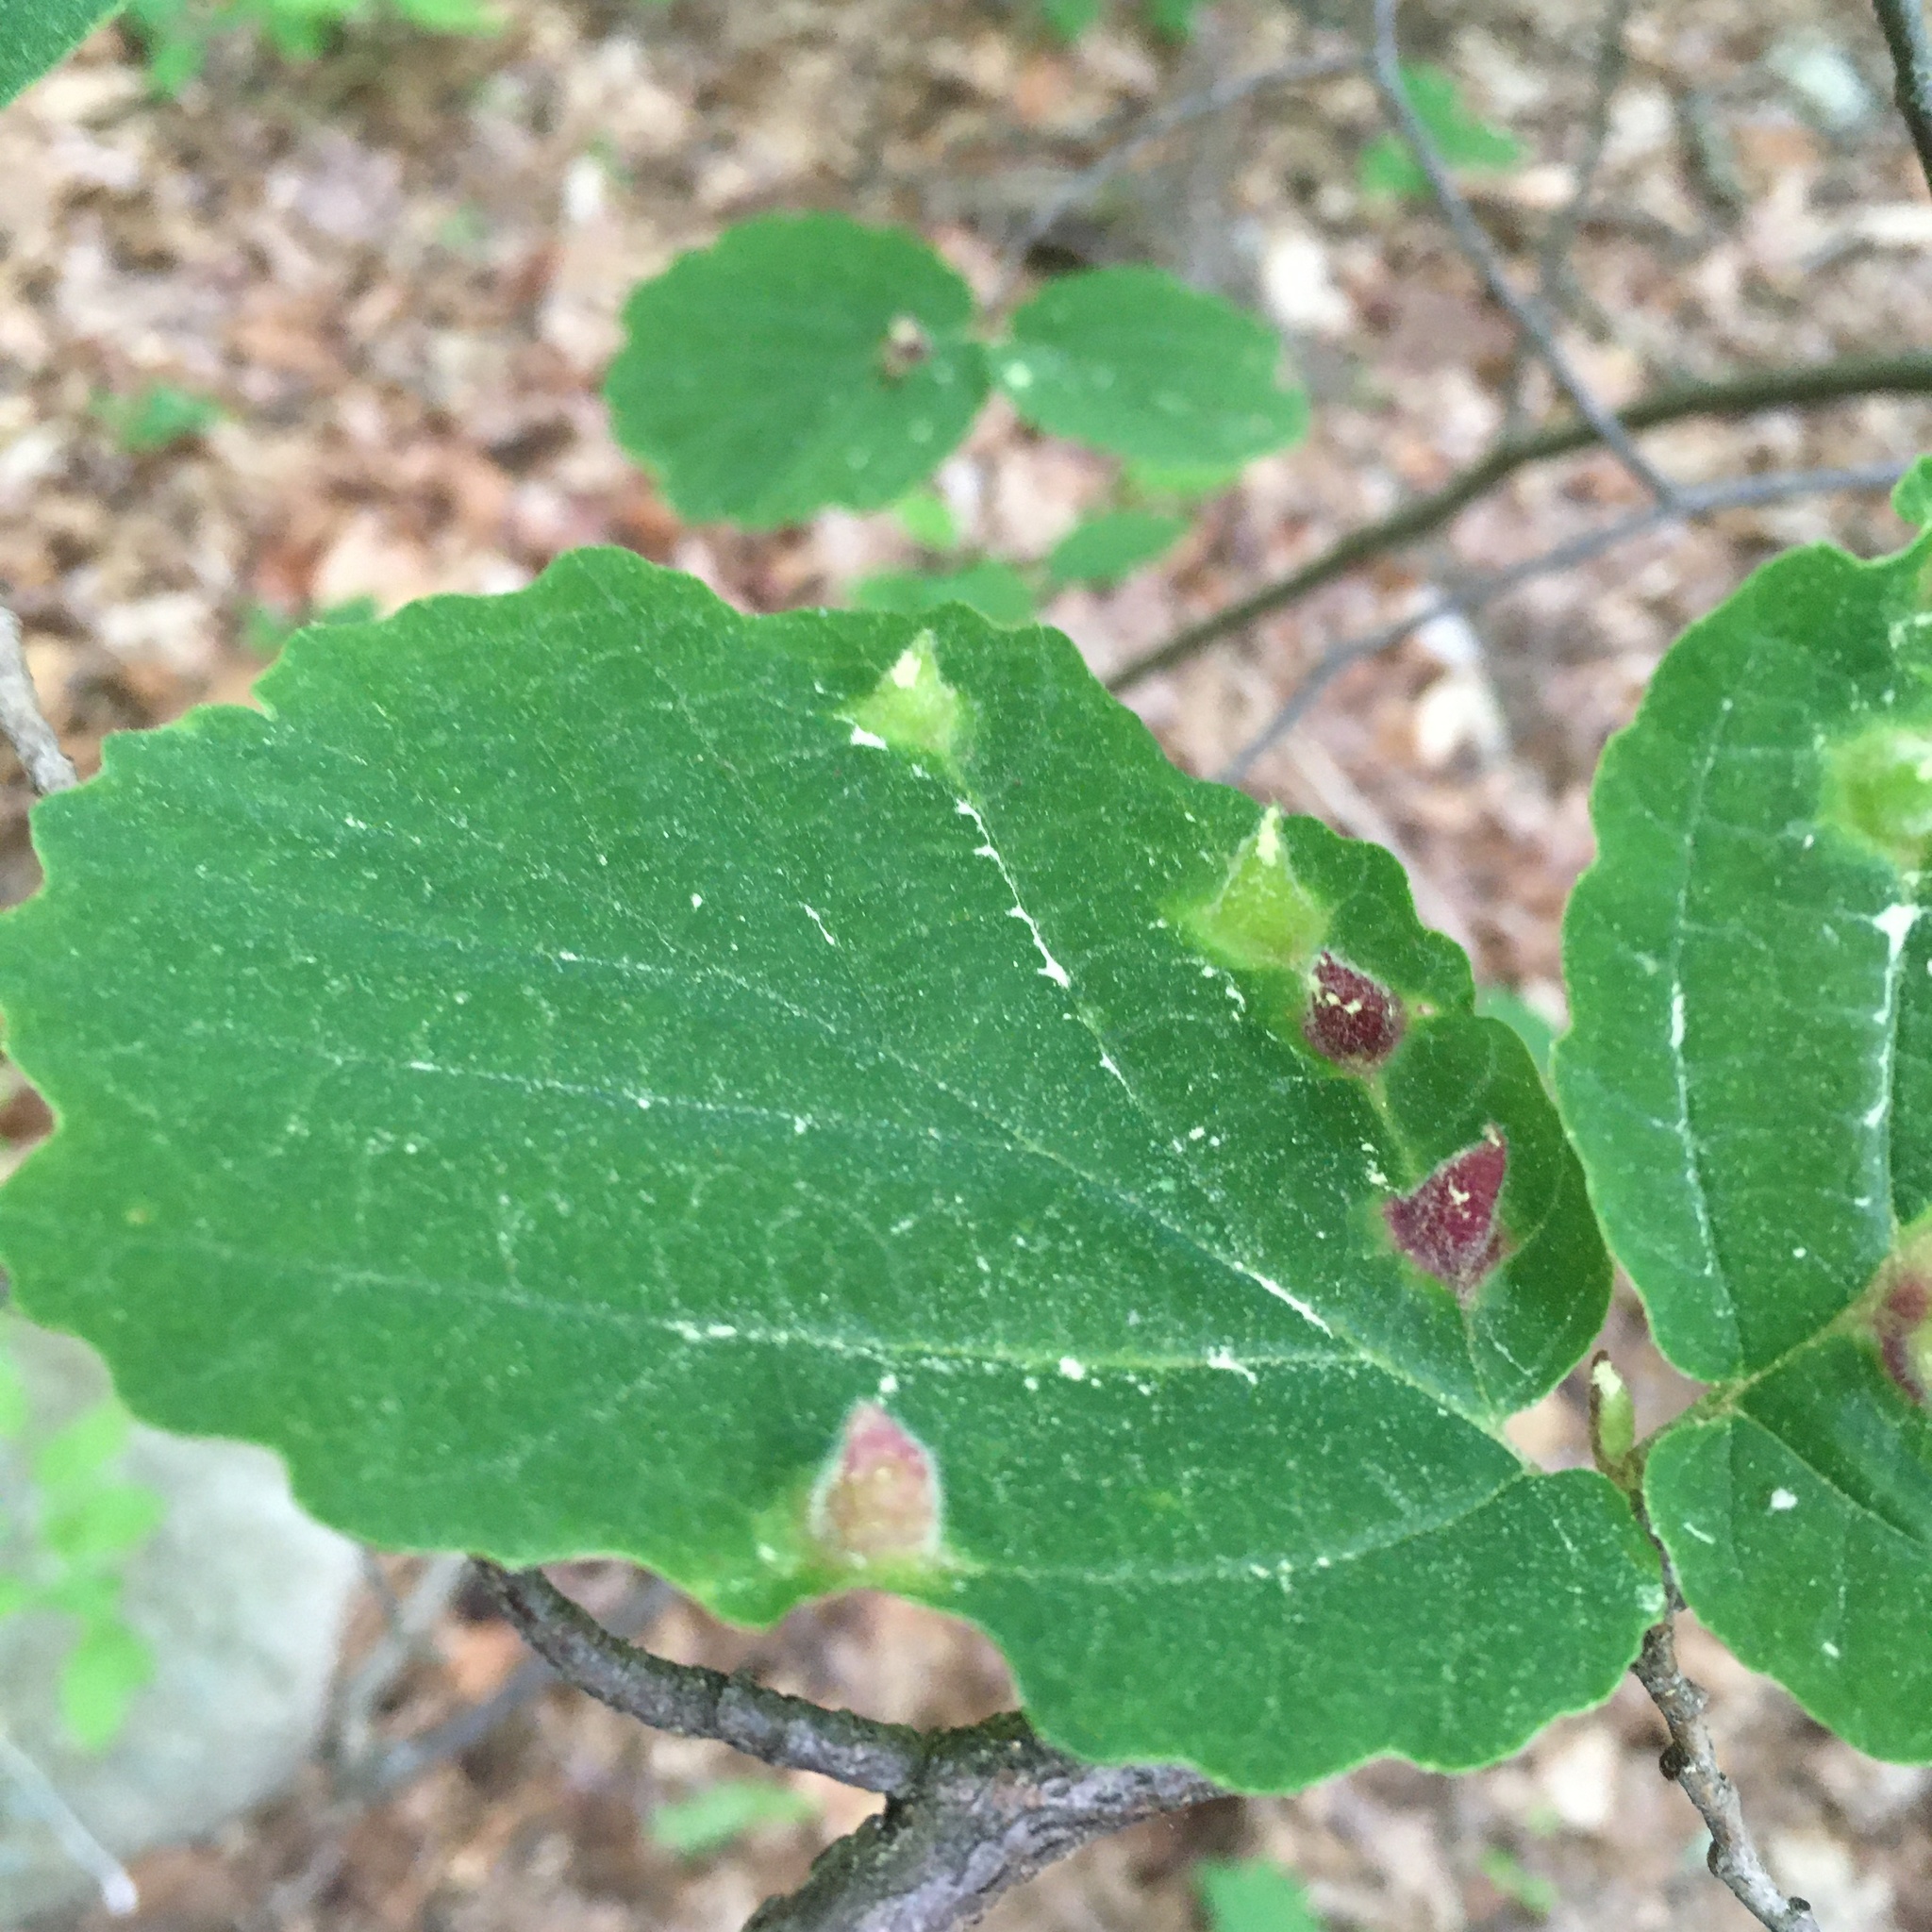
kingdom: Animalia
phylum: Arthropoda
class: Insecta
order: Hemiptera
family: Aphididae
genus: Hormaphis
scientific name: Hormaphis hamamelidis
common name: Witch-hazel cone gall aphid
